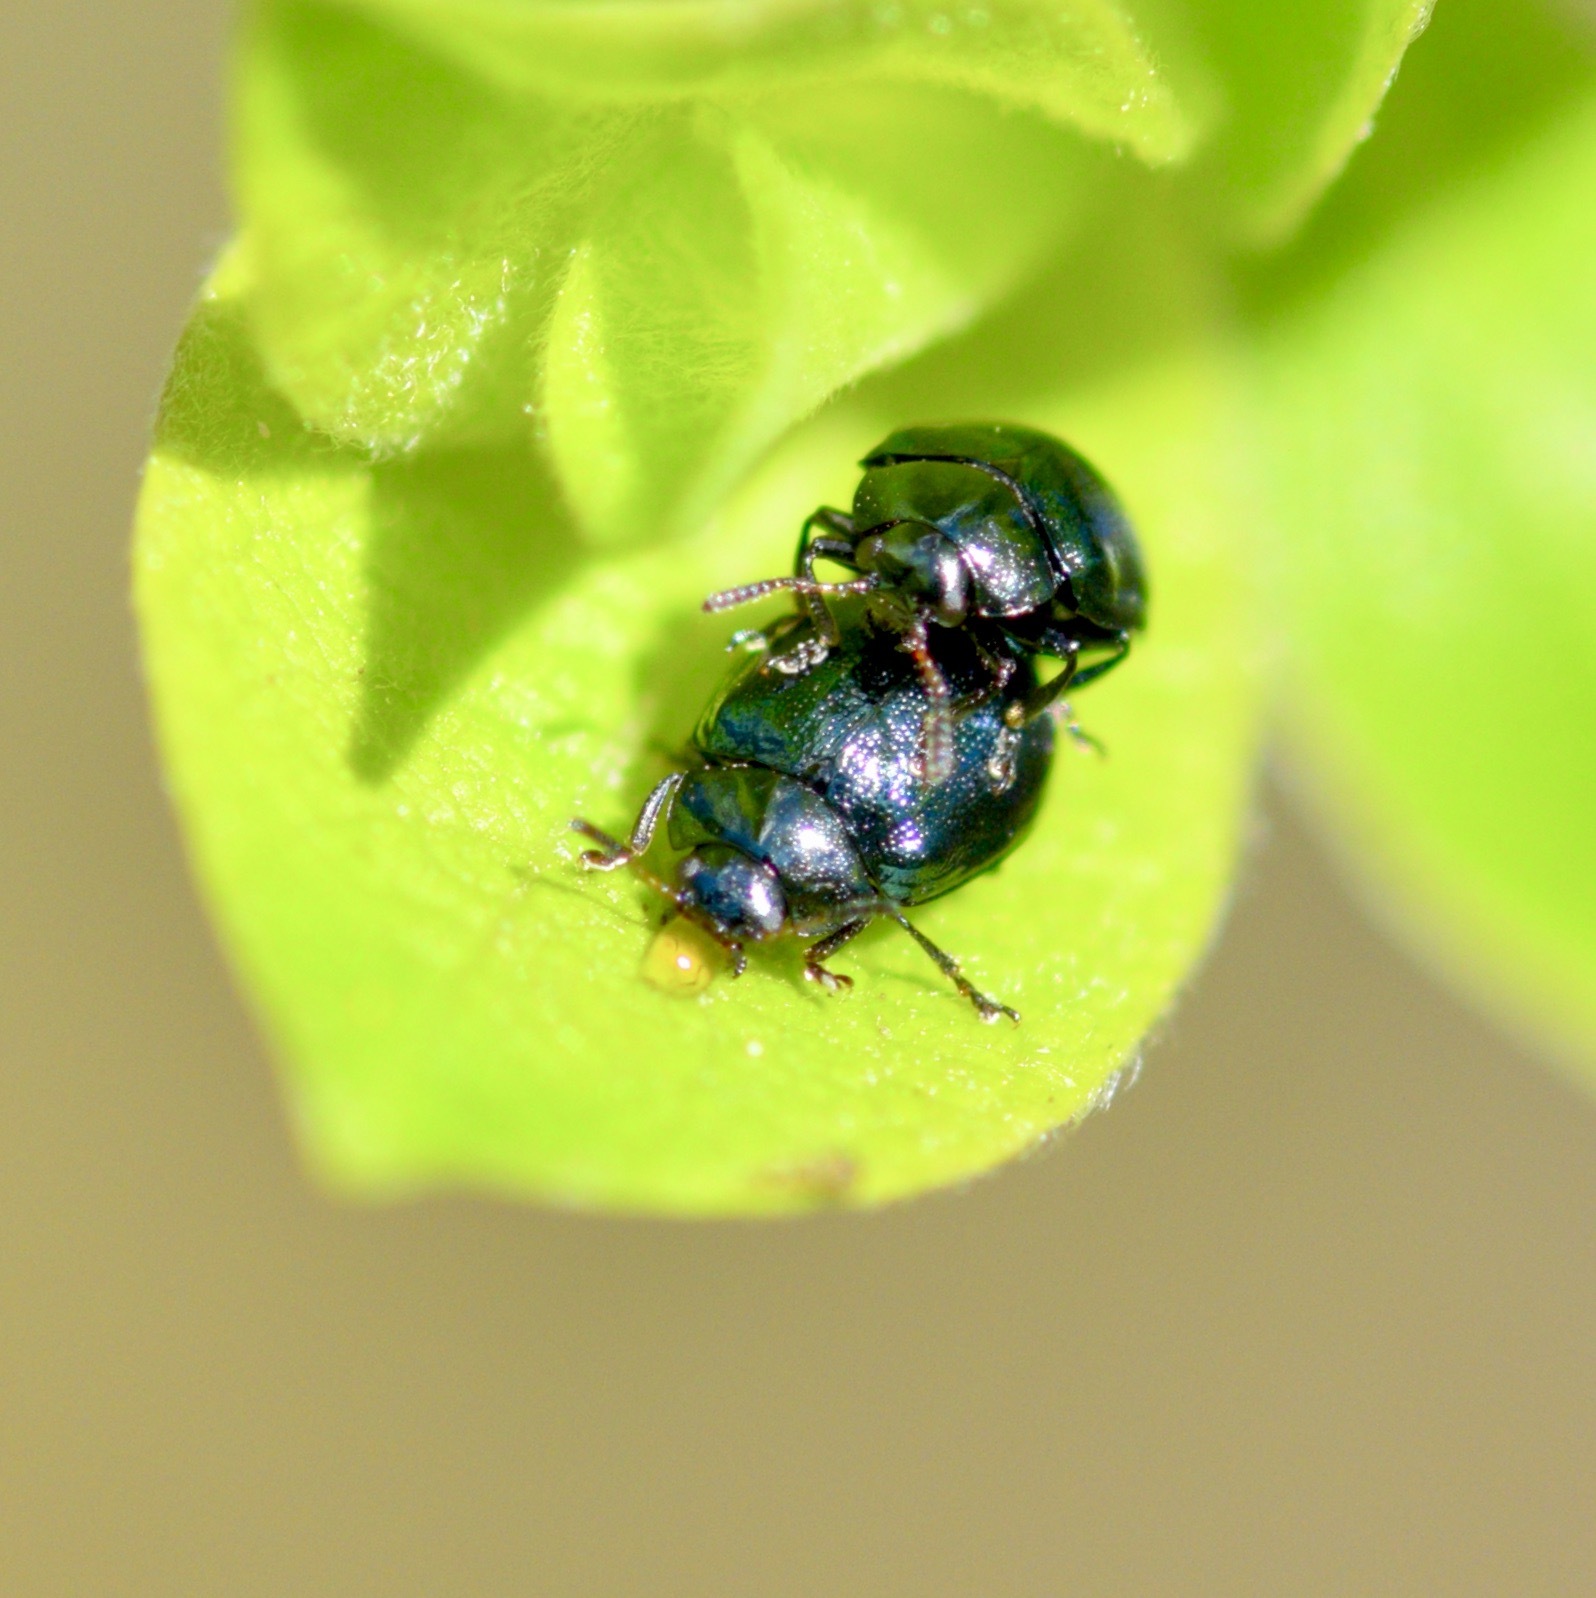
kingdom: Animalia
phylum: Arthropoda
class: Insecta
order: Coleoptera
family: Chrysomelidae
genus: Plagiodera
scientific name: Plagiodera versicolora
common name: Imported willow leaf beetle
